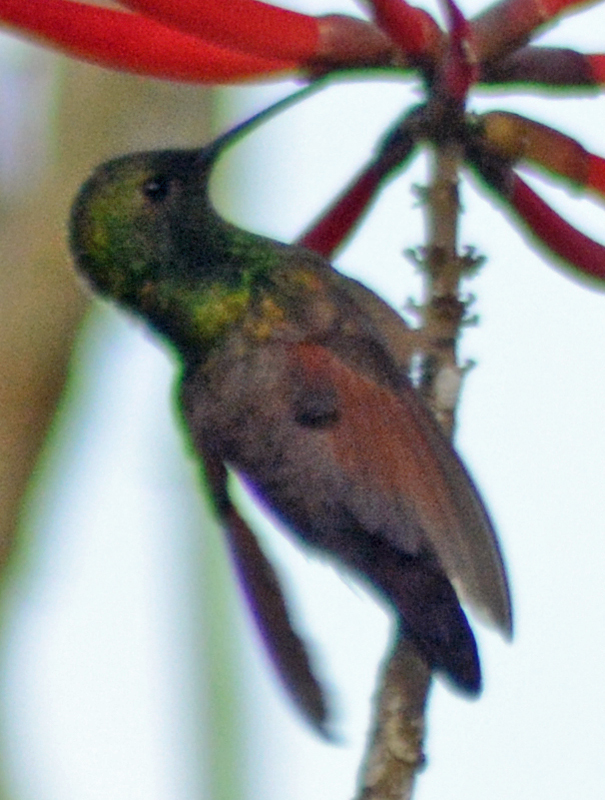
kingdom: Animalia
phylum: Chordata
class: Aves
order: Apodiformes
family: Trochilidae
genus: Saucerottia
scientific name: Saucerottia beryllina
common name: Berylline hummingbird
